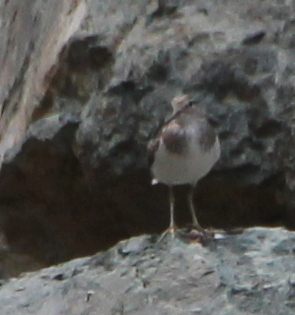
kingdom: Animalia
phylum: Chordata
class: Aves
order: Charadriiformes
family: Scolopacidae
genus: Actitis
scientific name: Actitis hypoleucos
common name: Common sandpiper
